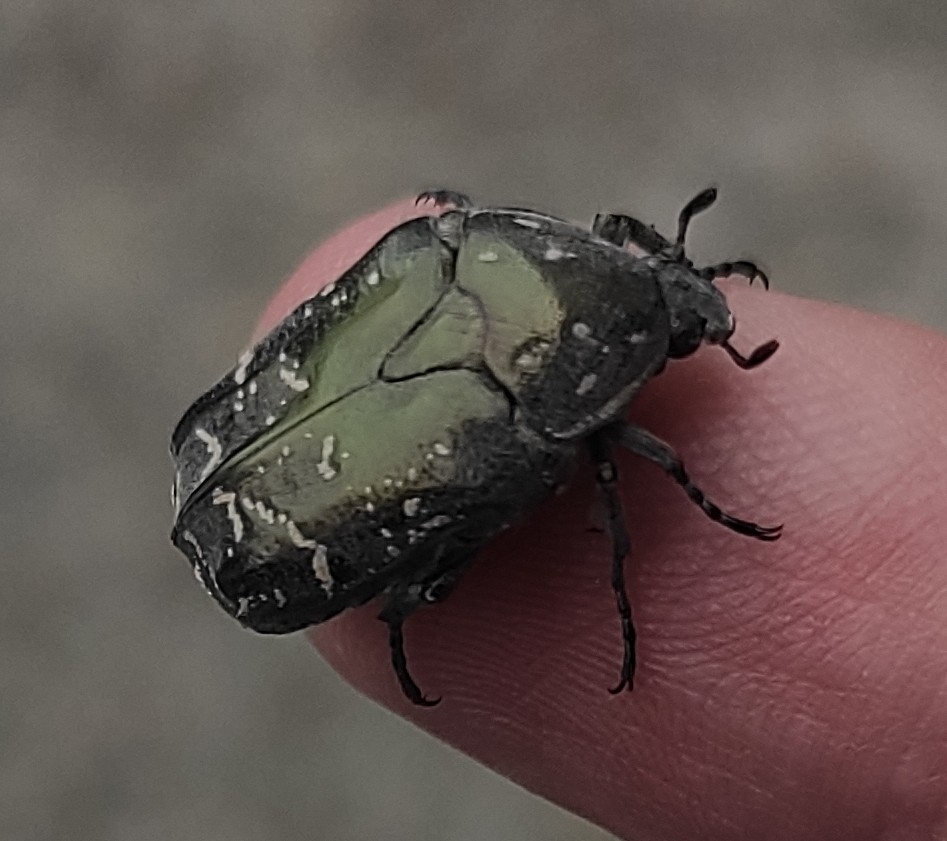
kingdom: Animalia
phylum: Arthropoda
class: Insecta
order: Coleoptera
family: Scarabaeidae
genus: Protaetia
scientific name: Protaetia cuprea
